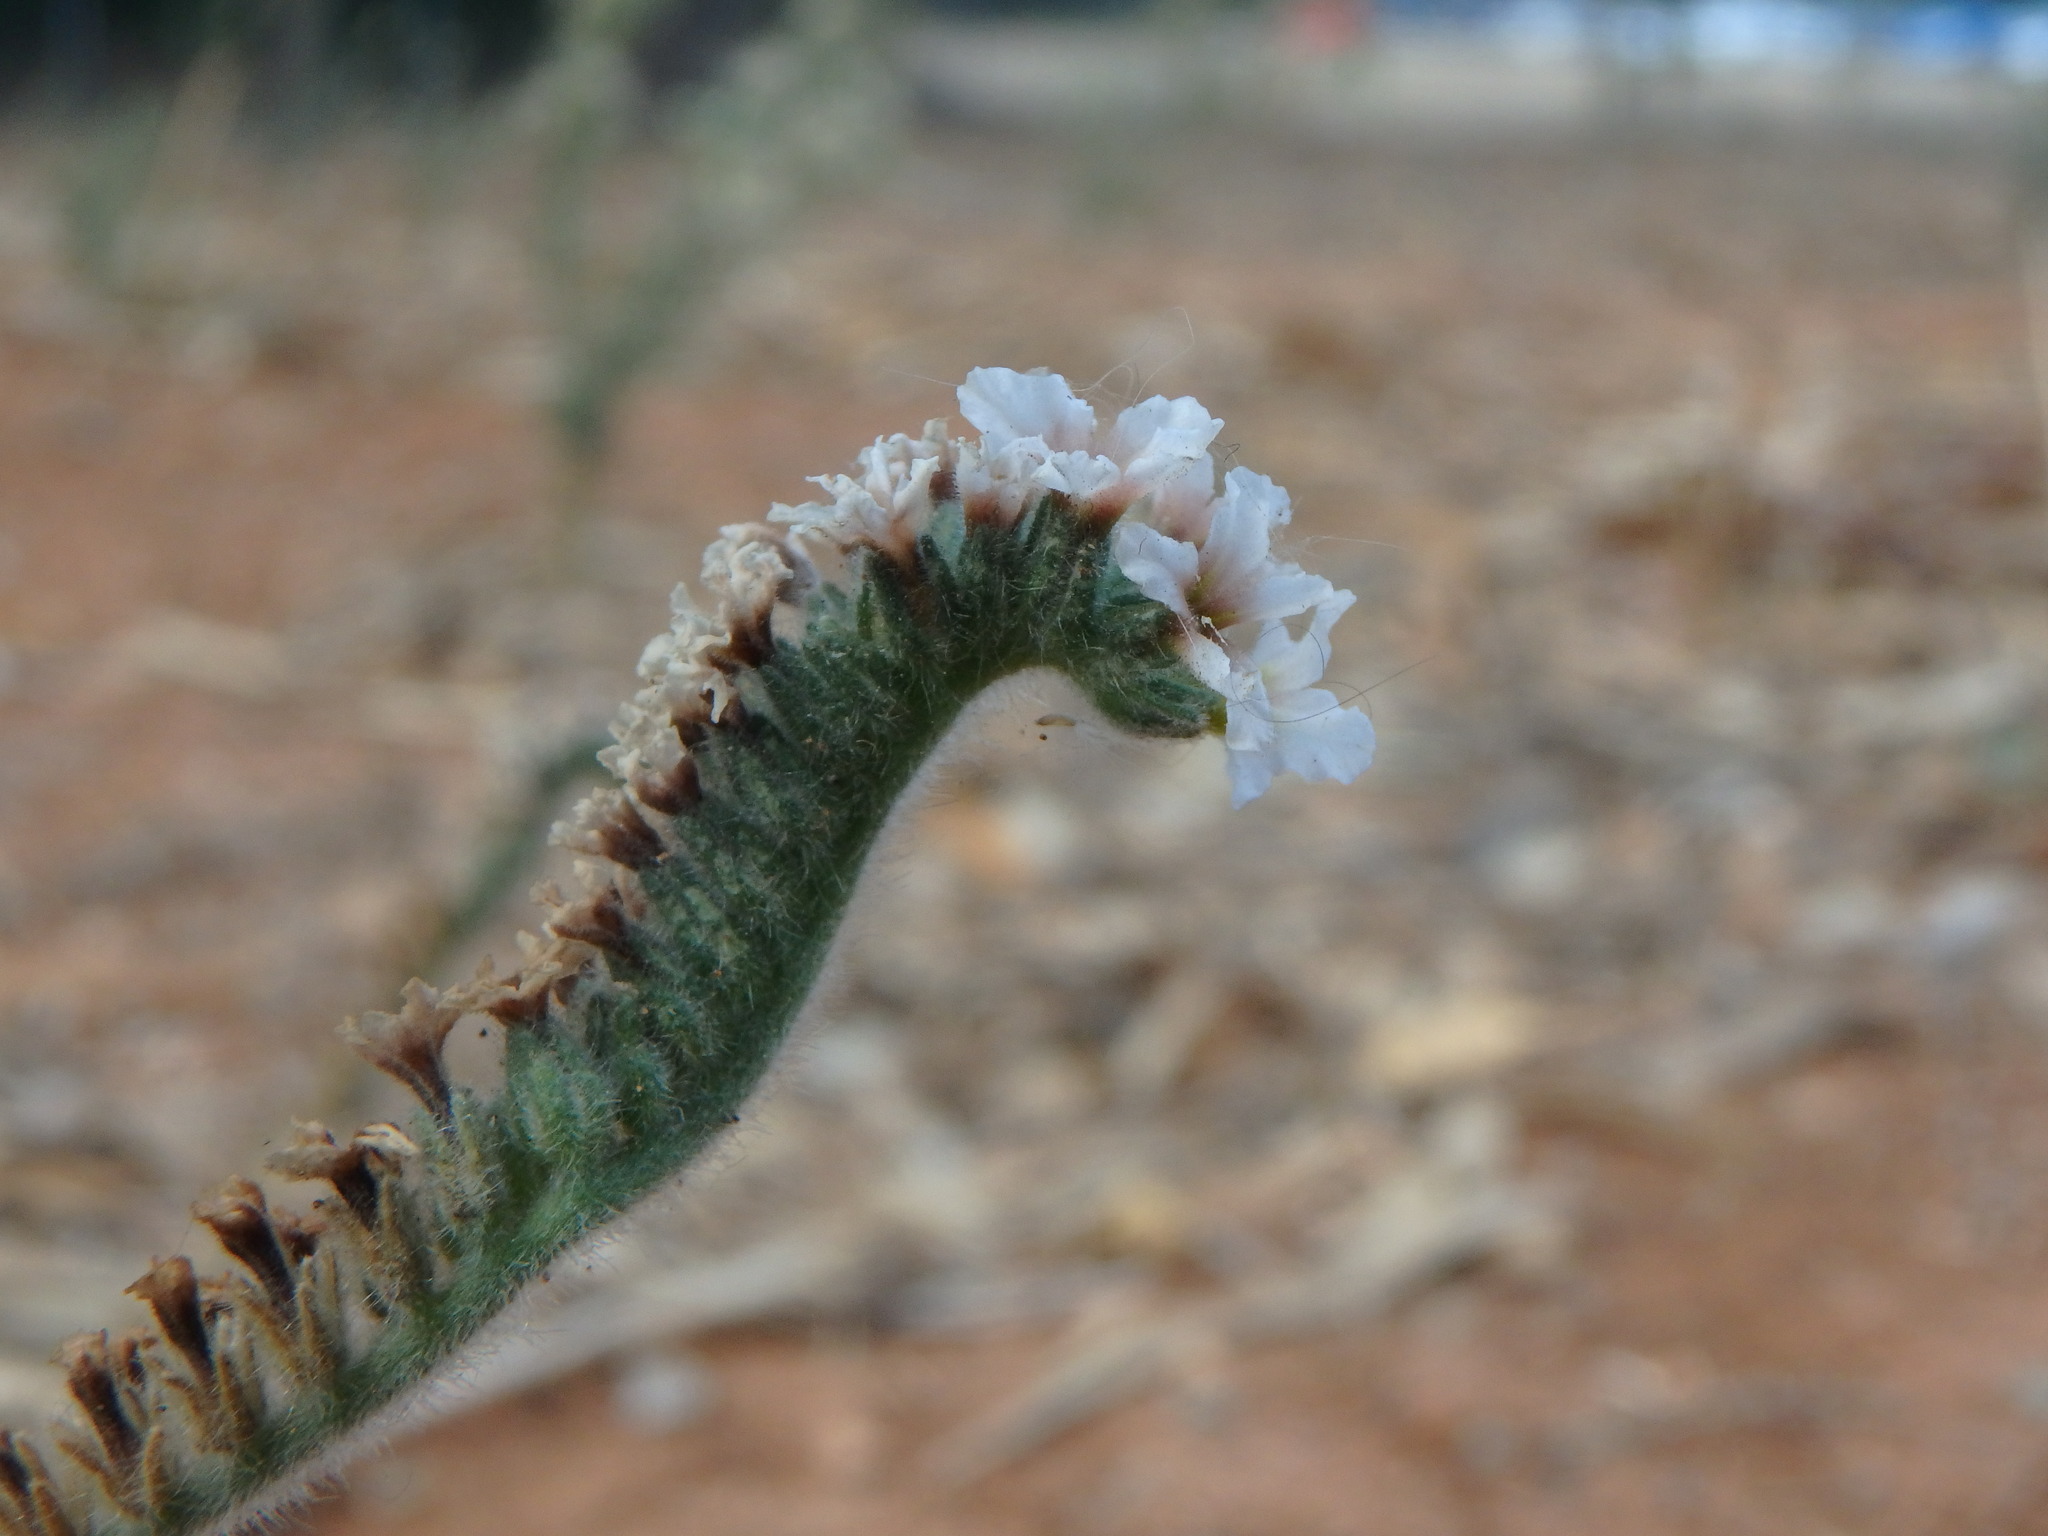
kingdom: Plantae
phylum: Tracheophyta
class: Magnoliopsida
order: Boraginales
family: Heliotropiaceae
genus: Heliotropium
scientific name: Heliotropium hirsutissimum
